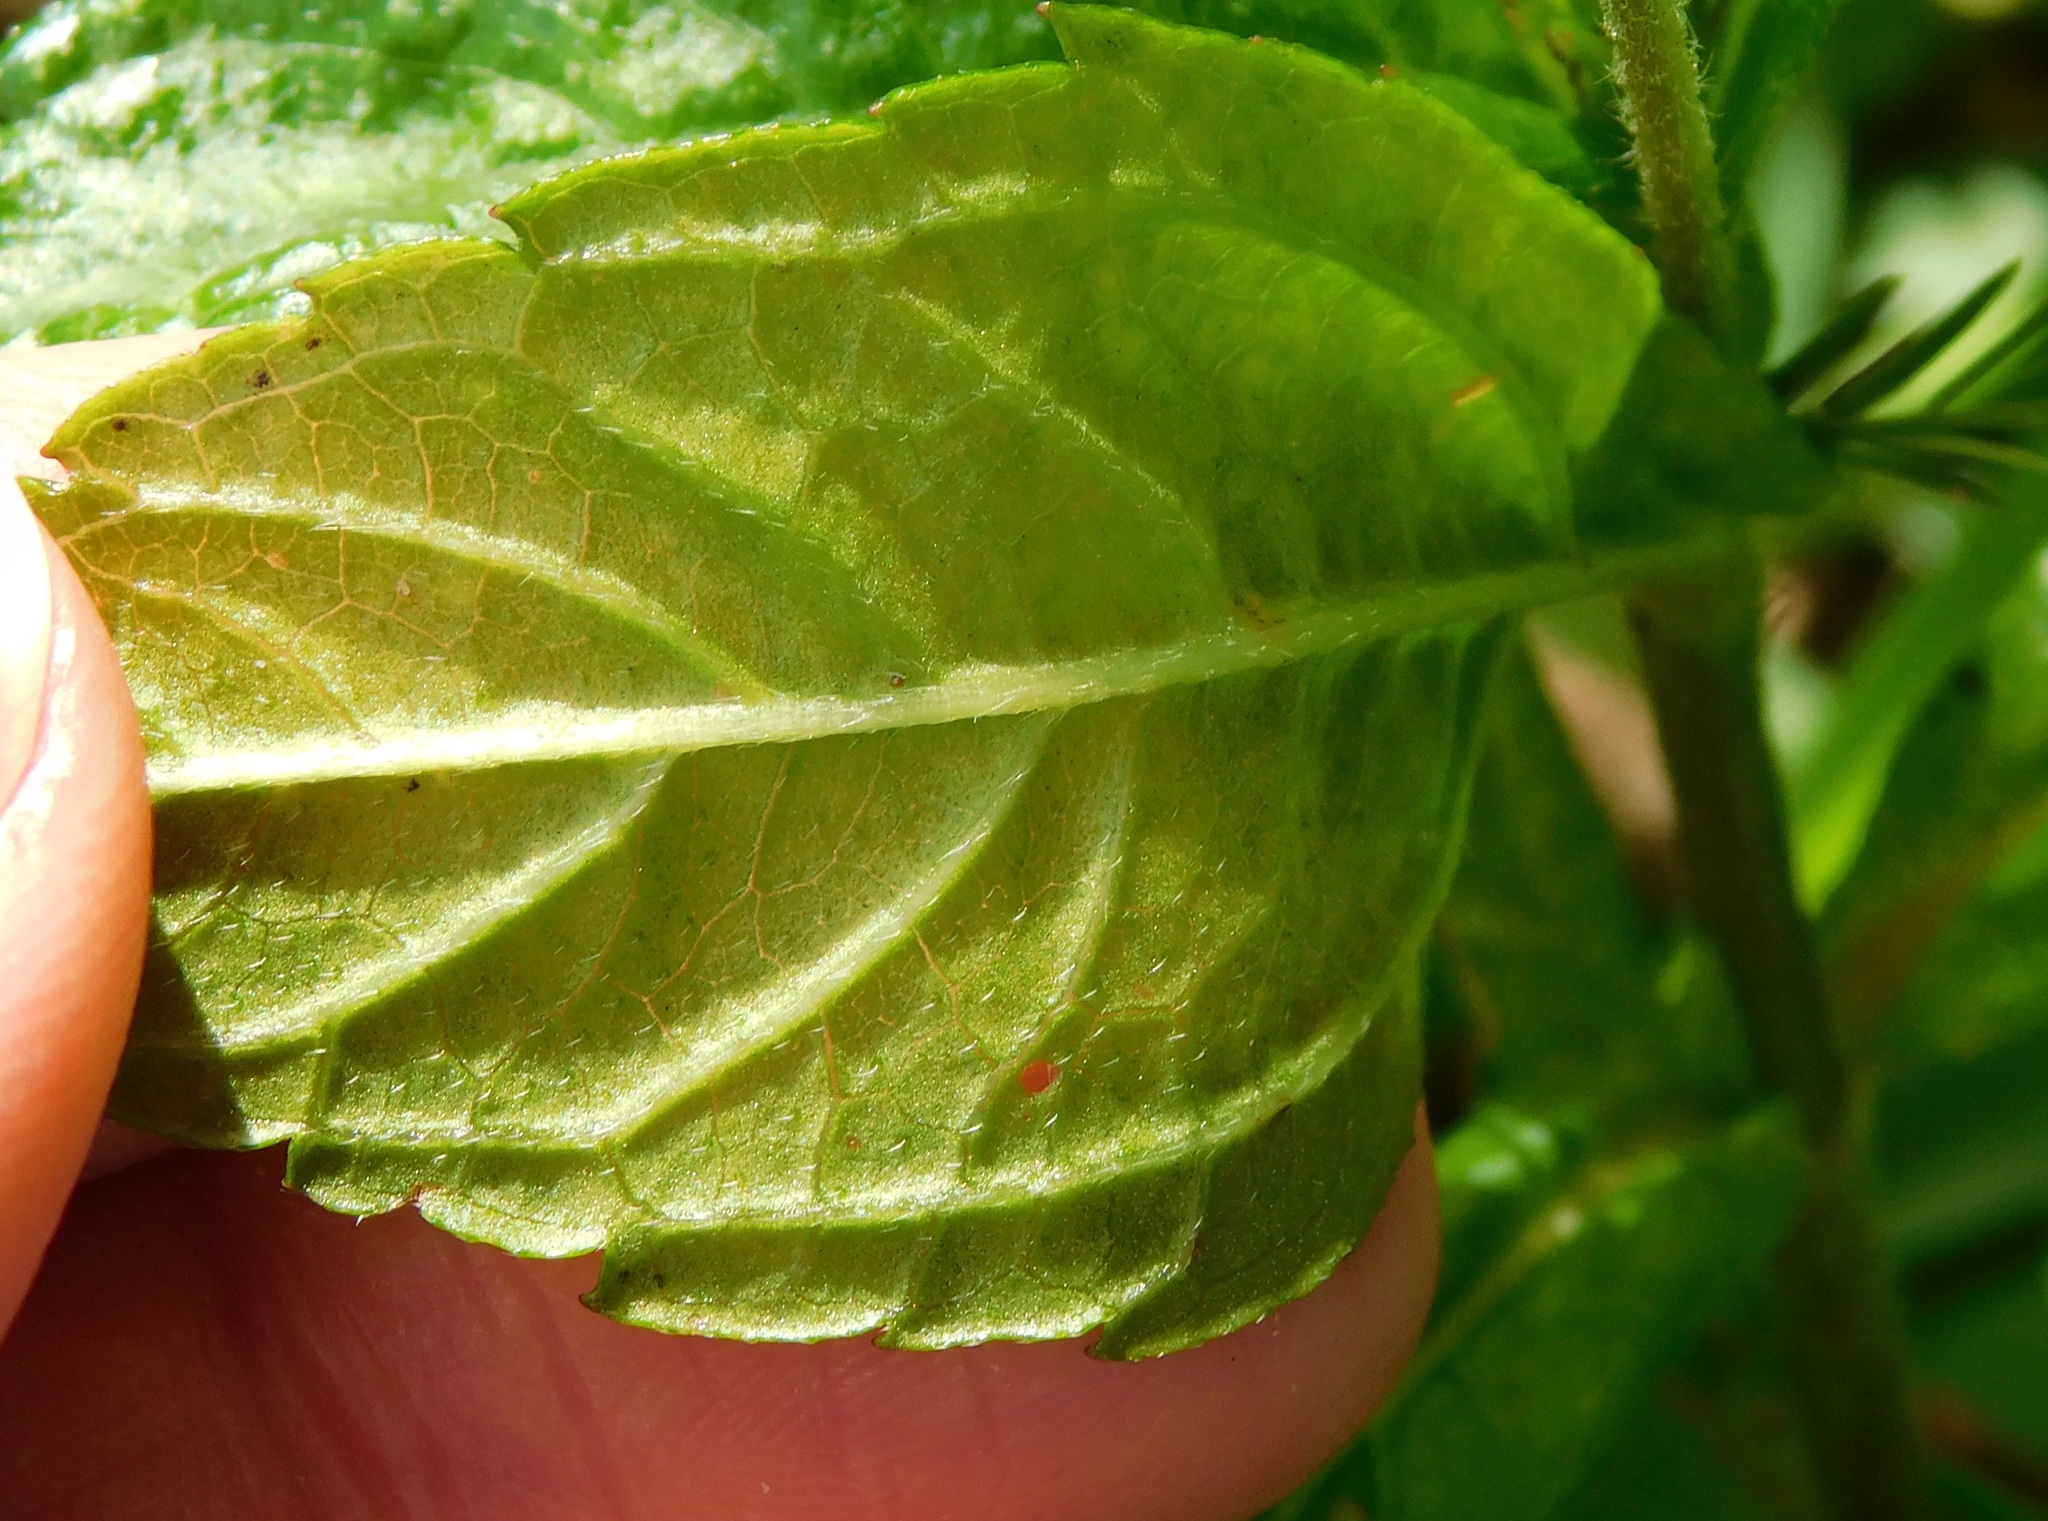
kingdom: Plantae
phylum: Tracheophyta
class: Magnoliopsida
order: Asterales
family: Asteraceae
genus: Sphagneticola
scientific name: Sphagneticola trilobata
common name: Bay biscayne creeping-oxeye
